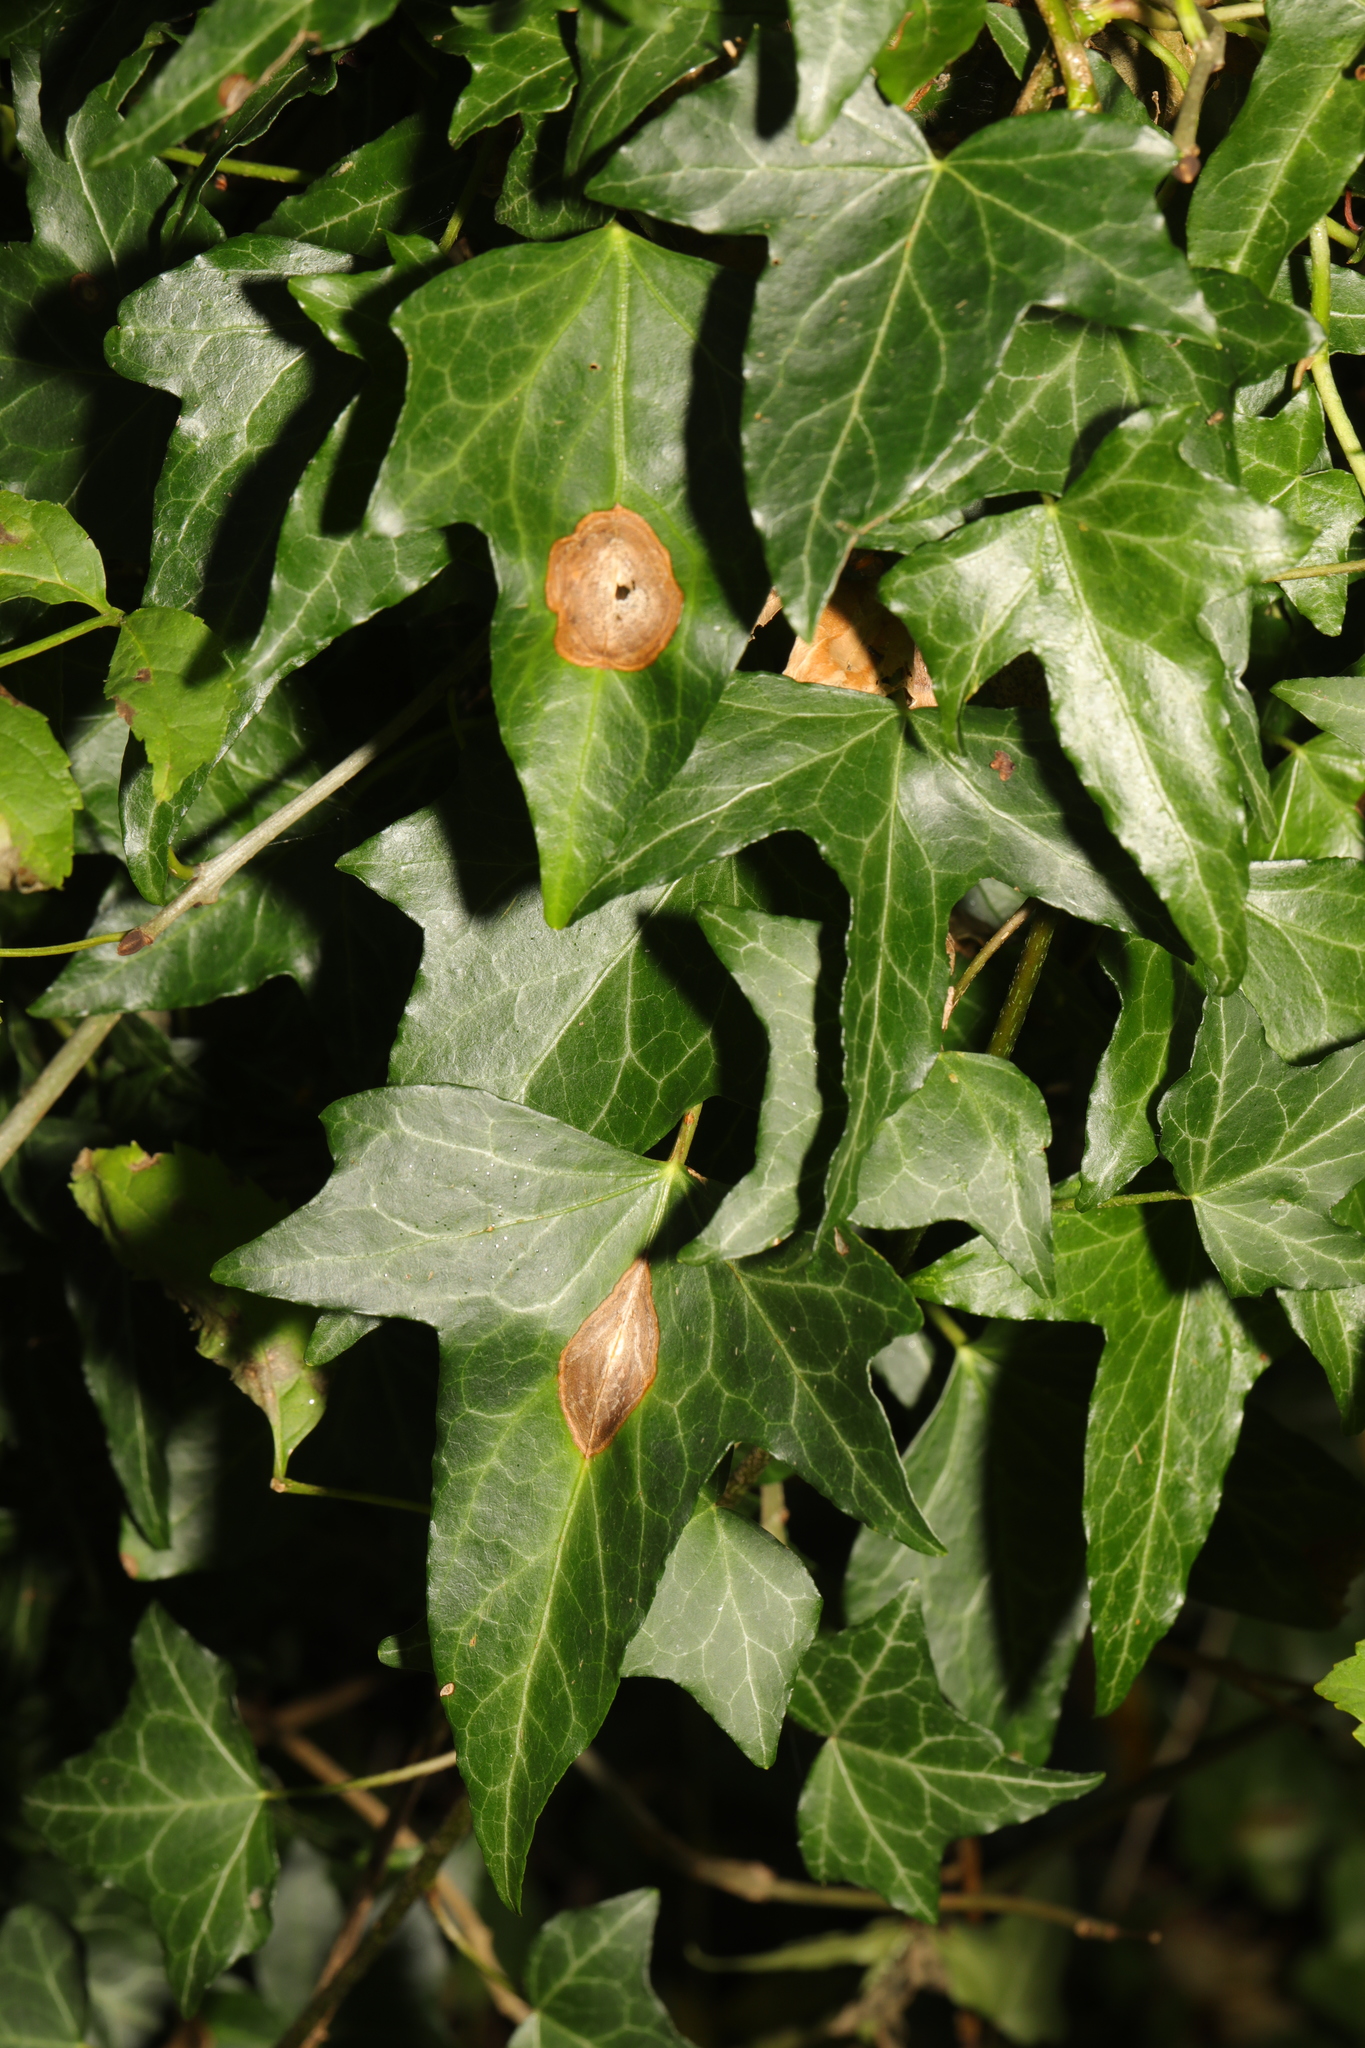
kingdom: Plantae
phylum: Tracheophyta
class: Magnoliopsida
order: Apiales
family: Araliaceae
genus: Hedera
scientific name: Hedera helix
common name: Ivy
